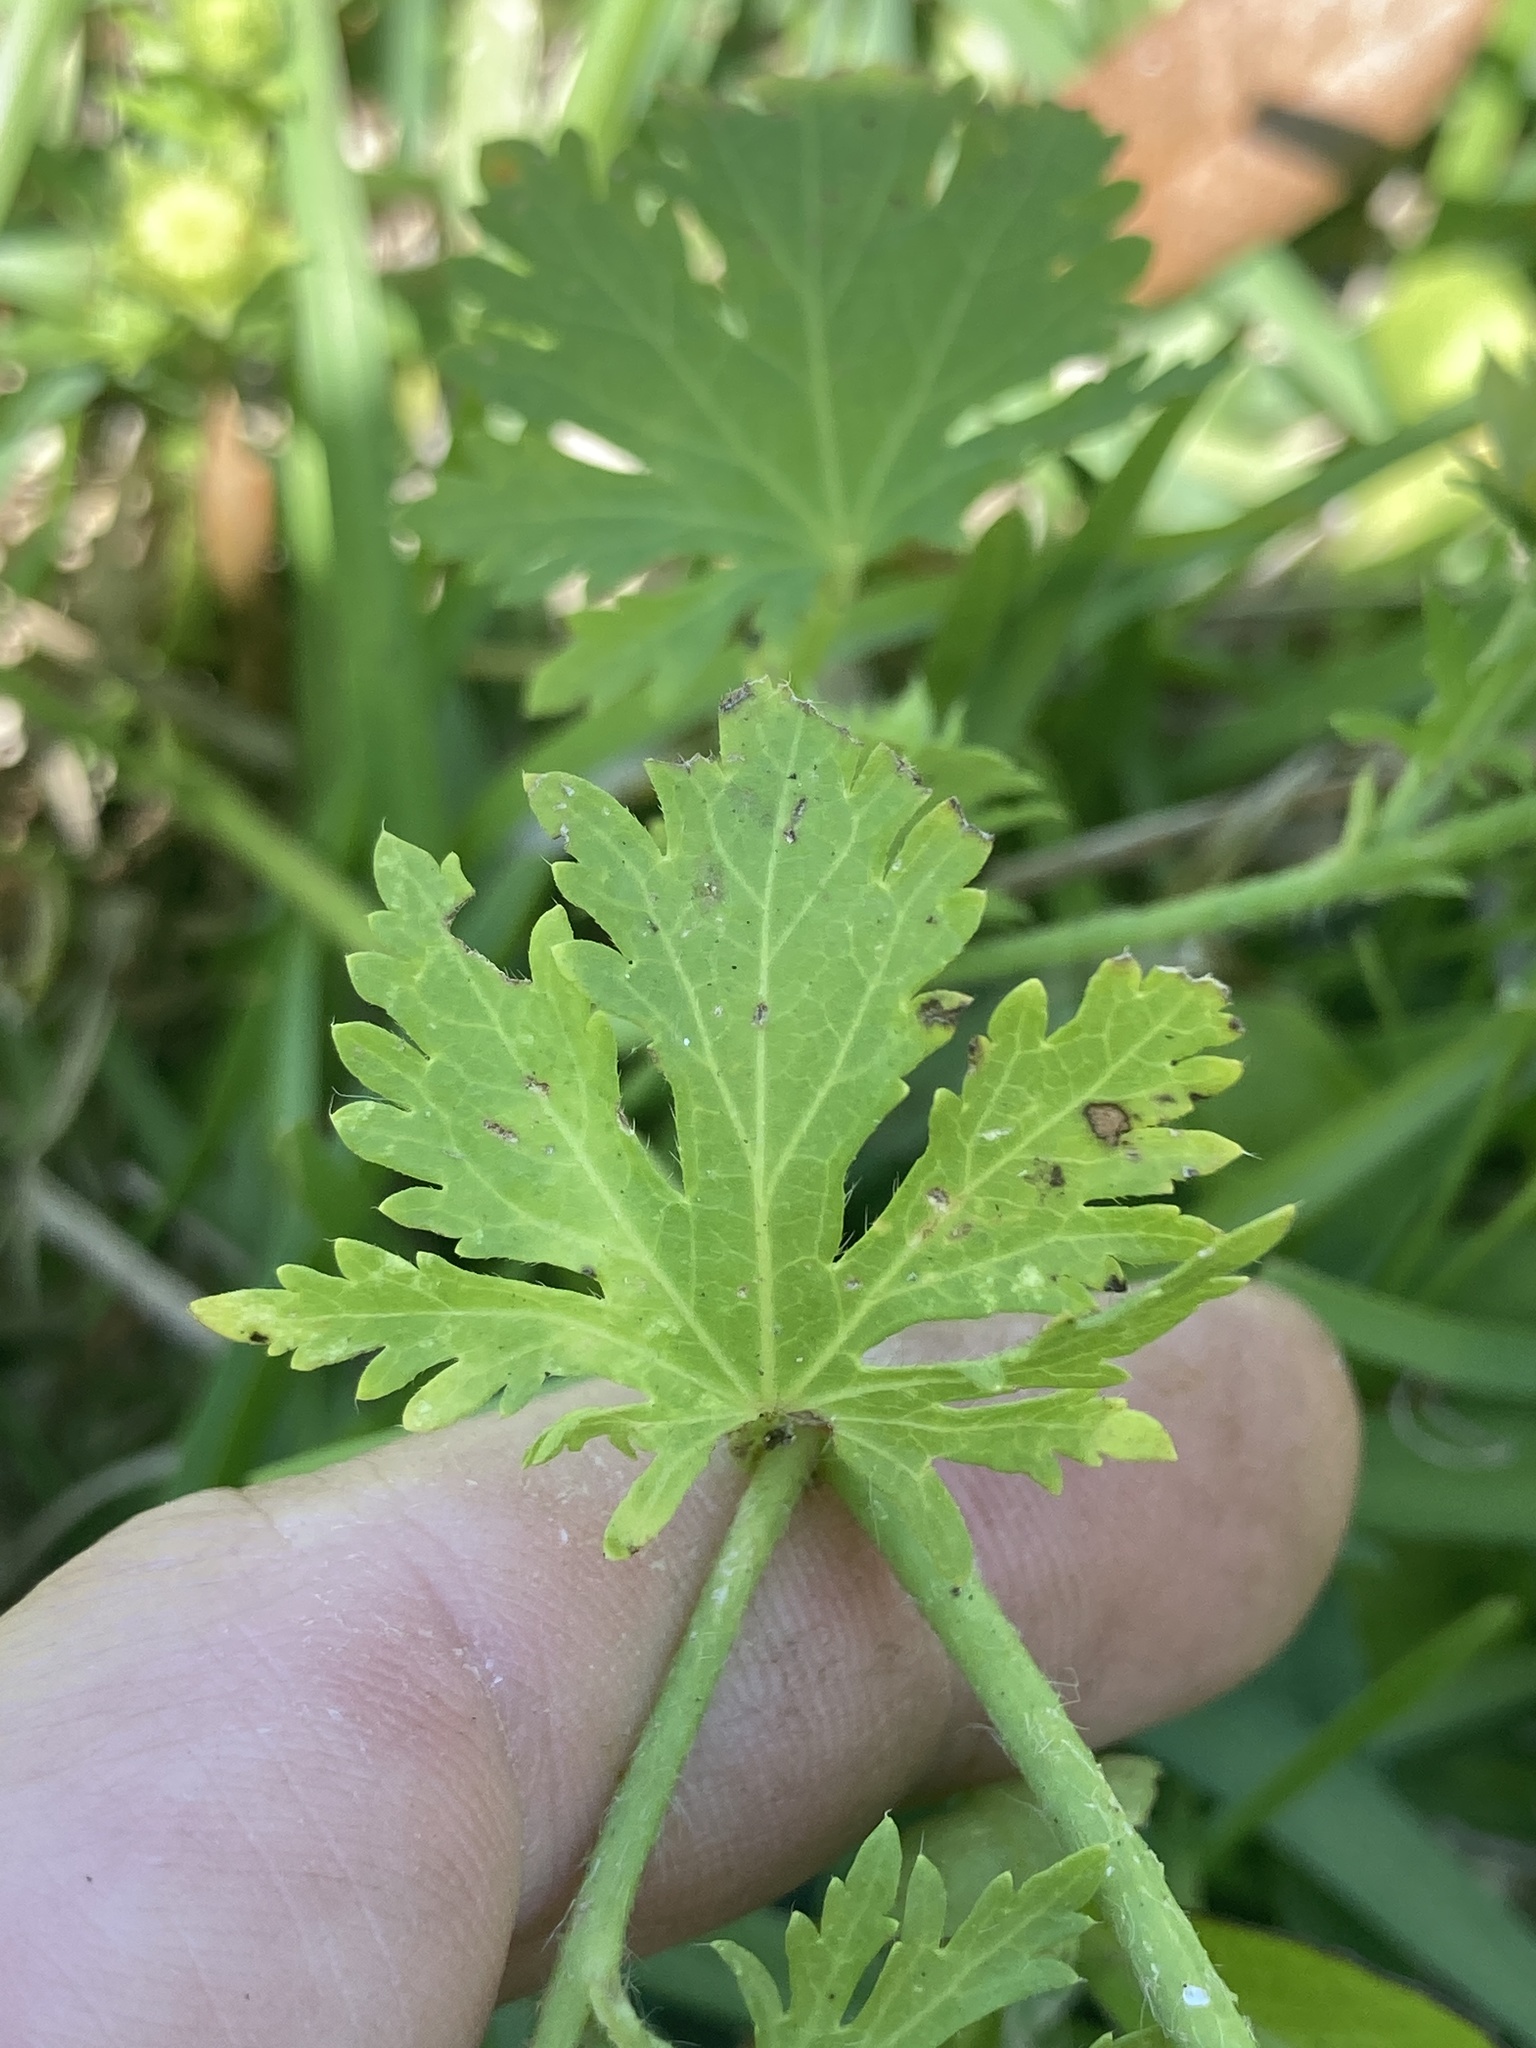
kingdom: Plantae
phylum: Tracheophyta
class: Magnoliopsida
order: Malvales
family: Malvaceae
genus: Modiola
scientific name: Modiola caroliniana
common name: Carolina bristlemallow
